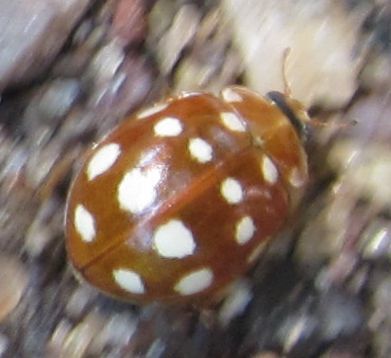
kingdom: Animalia
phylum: Arthropoda
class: Insecta
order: Coleoptera
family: Coccinellidae
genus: Calvia
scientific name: Calvia quatuordecimguttata
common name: Cream-spot ladybird
